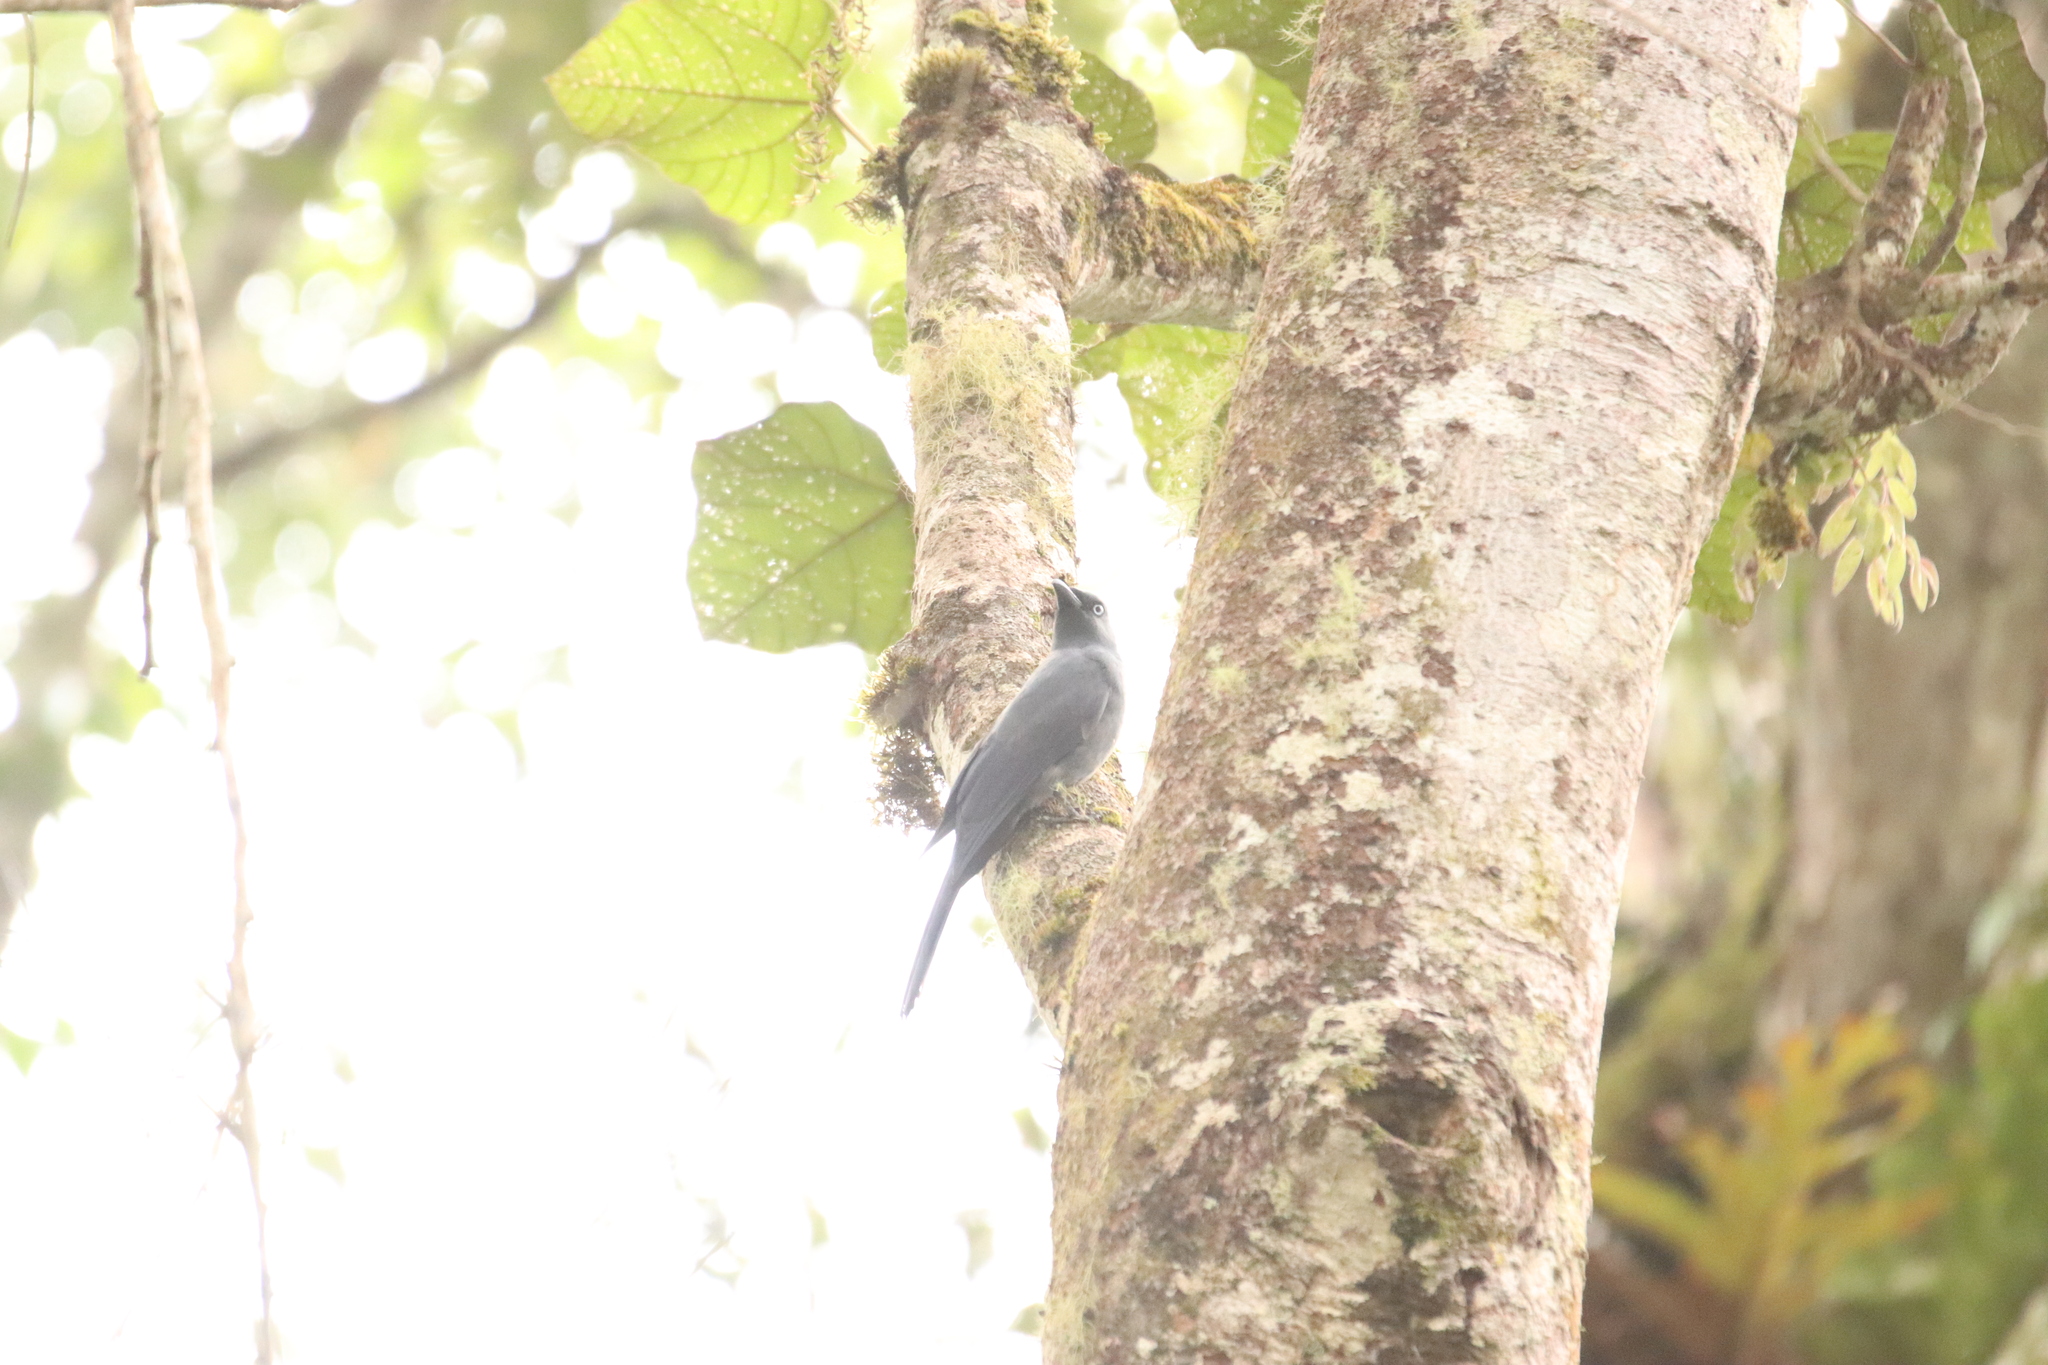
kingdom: Animalia
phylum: Chordata
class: Aves
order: Passeriformes
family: Campephagidae
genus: Coracina
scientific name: Coracina temminckii
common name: Cerulean cuckooshrike
